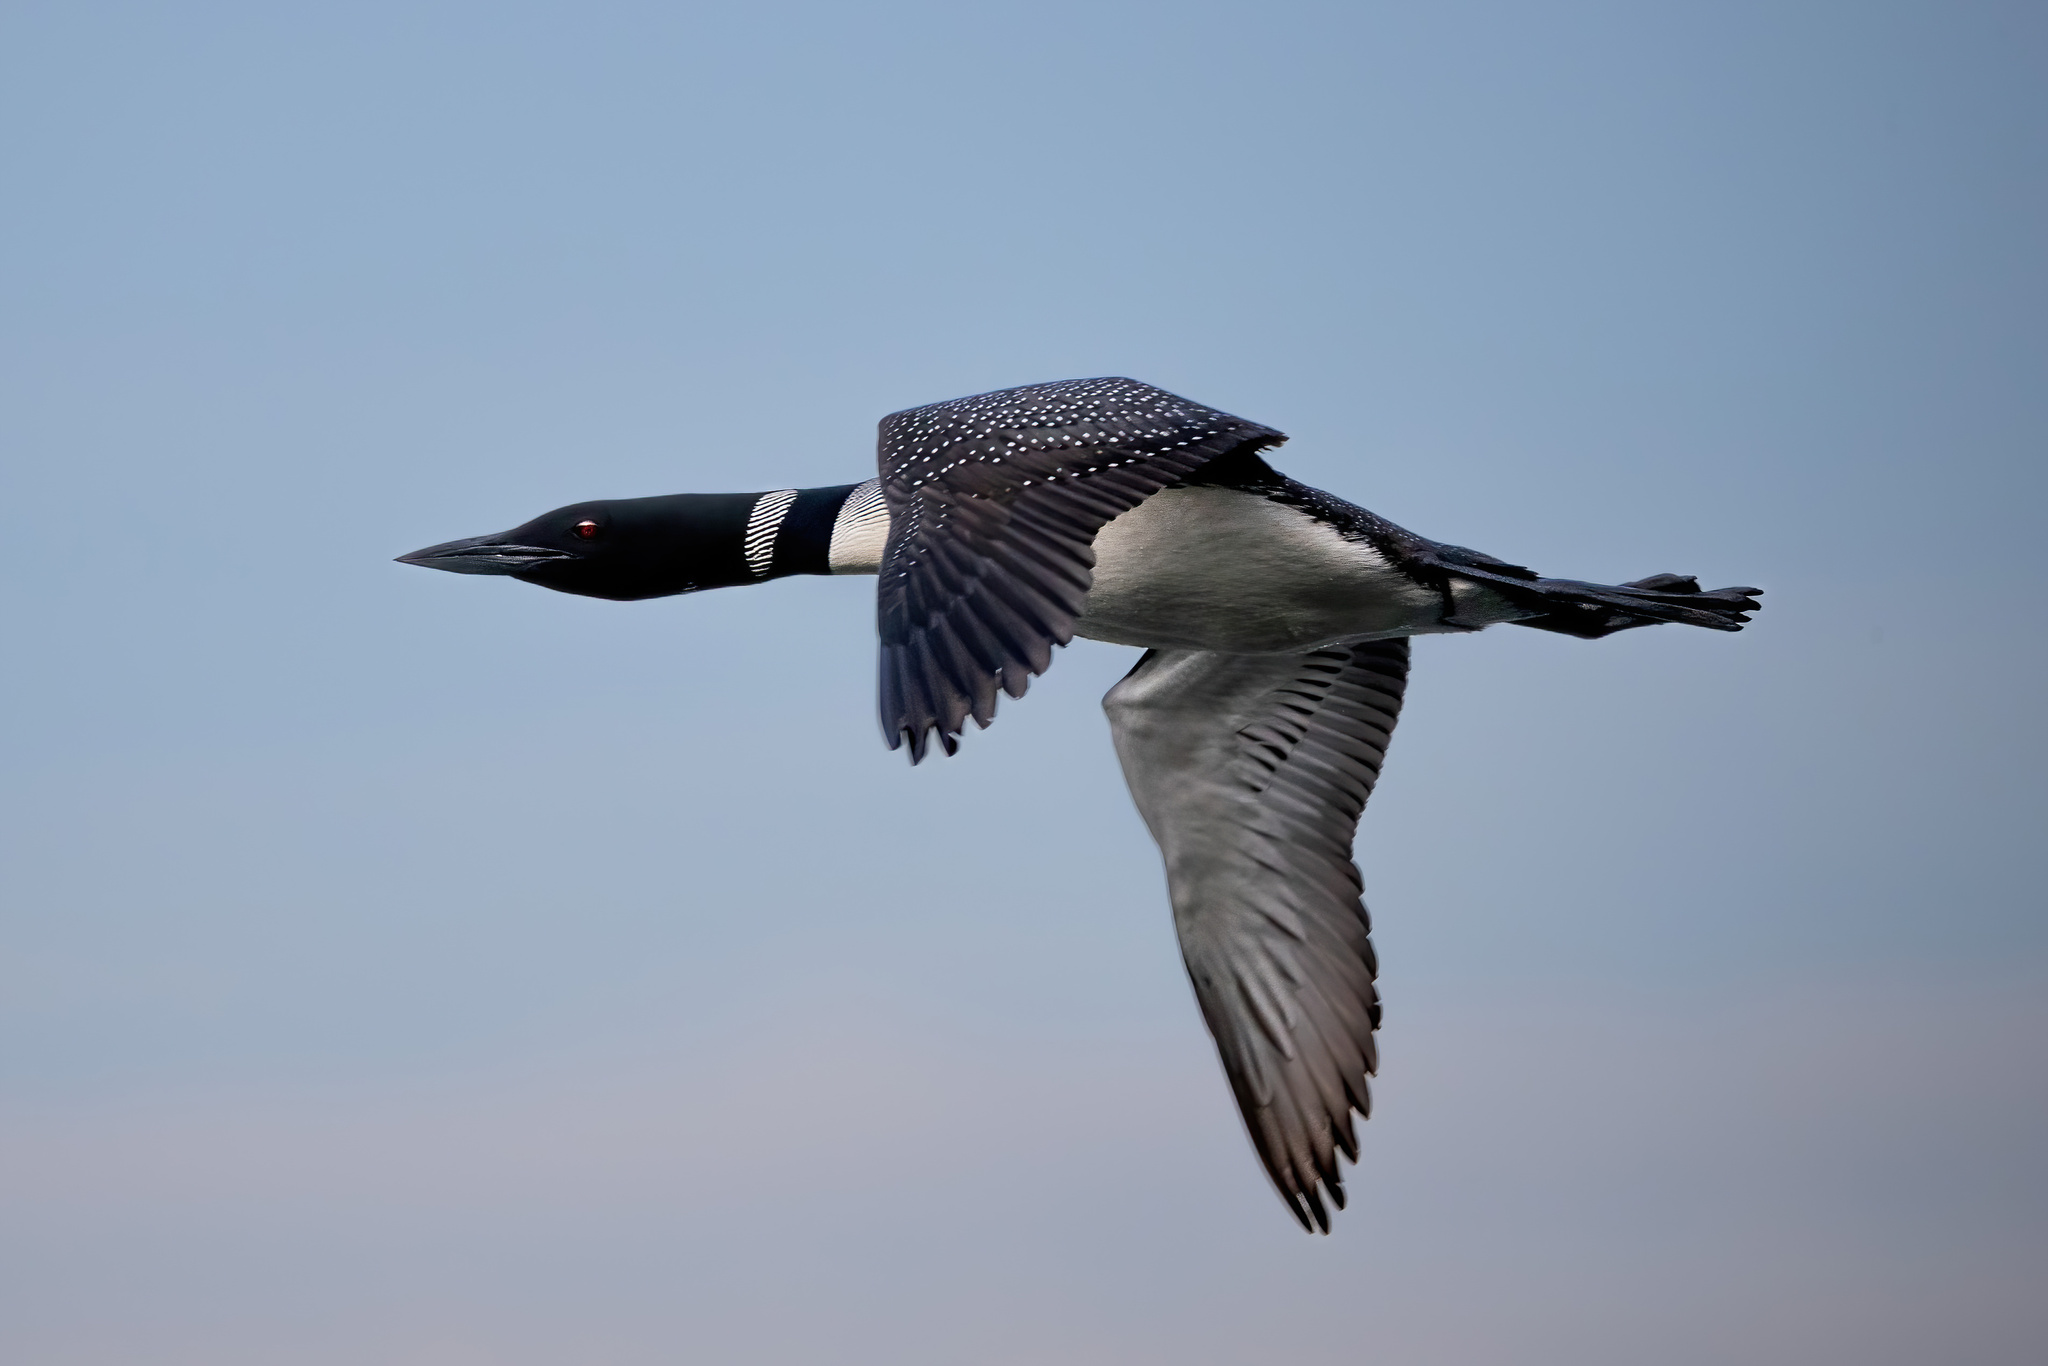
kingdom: Animalia
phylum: Chordata
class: Aves
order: Gaviiformes
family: Gaviidae
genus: Gavia
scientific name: Gavia immer
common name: Common loon
